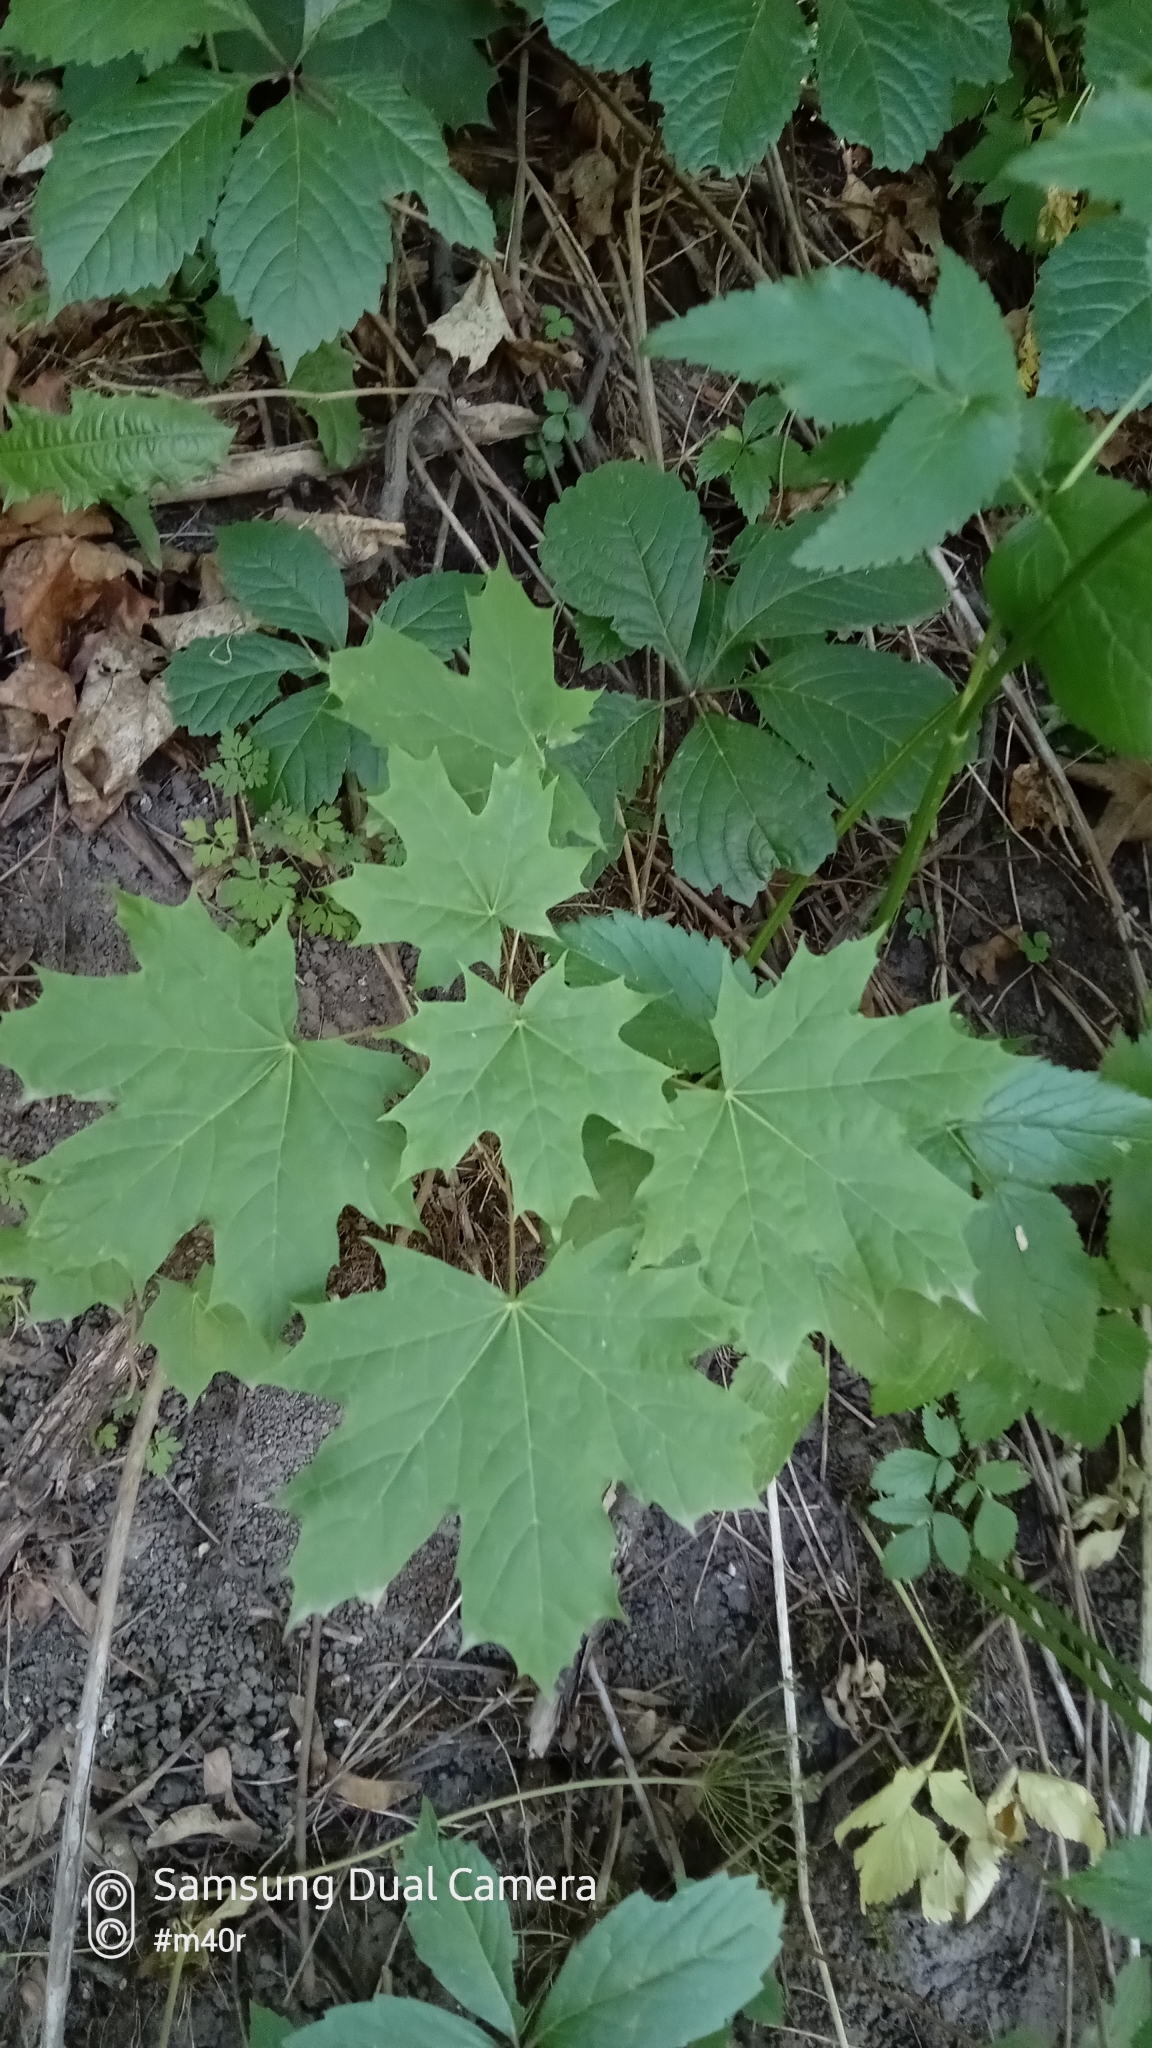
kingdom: Plantae
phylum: Tracheophyta
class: Magnoliopsida
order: Sapindales
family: Sapindaceae
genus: Acer
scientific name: Acer platanoides
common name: Norway maple
